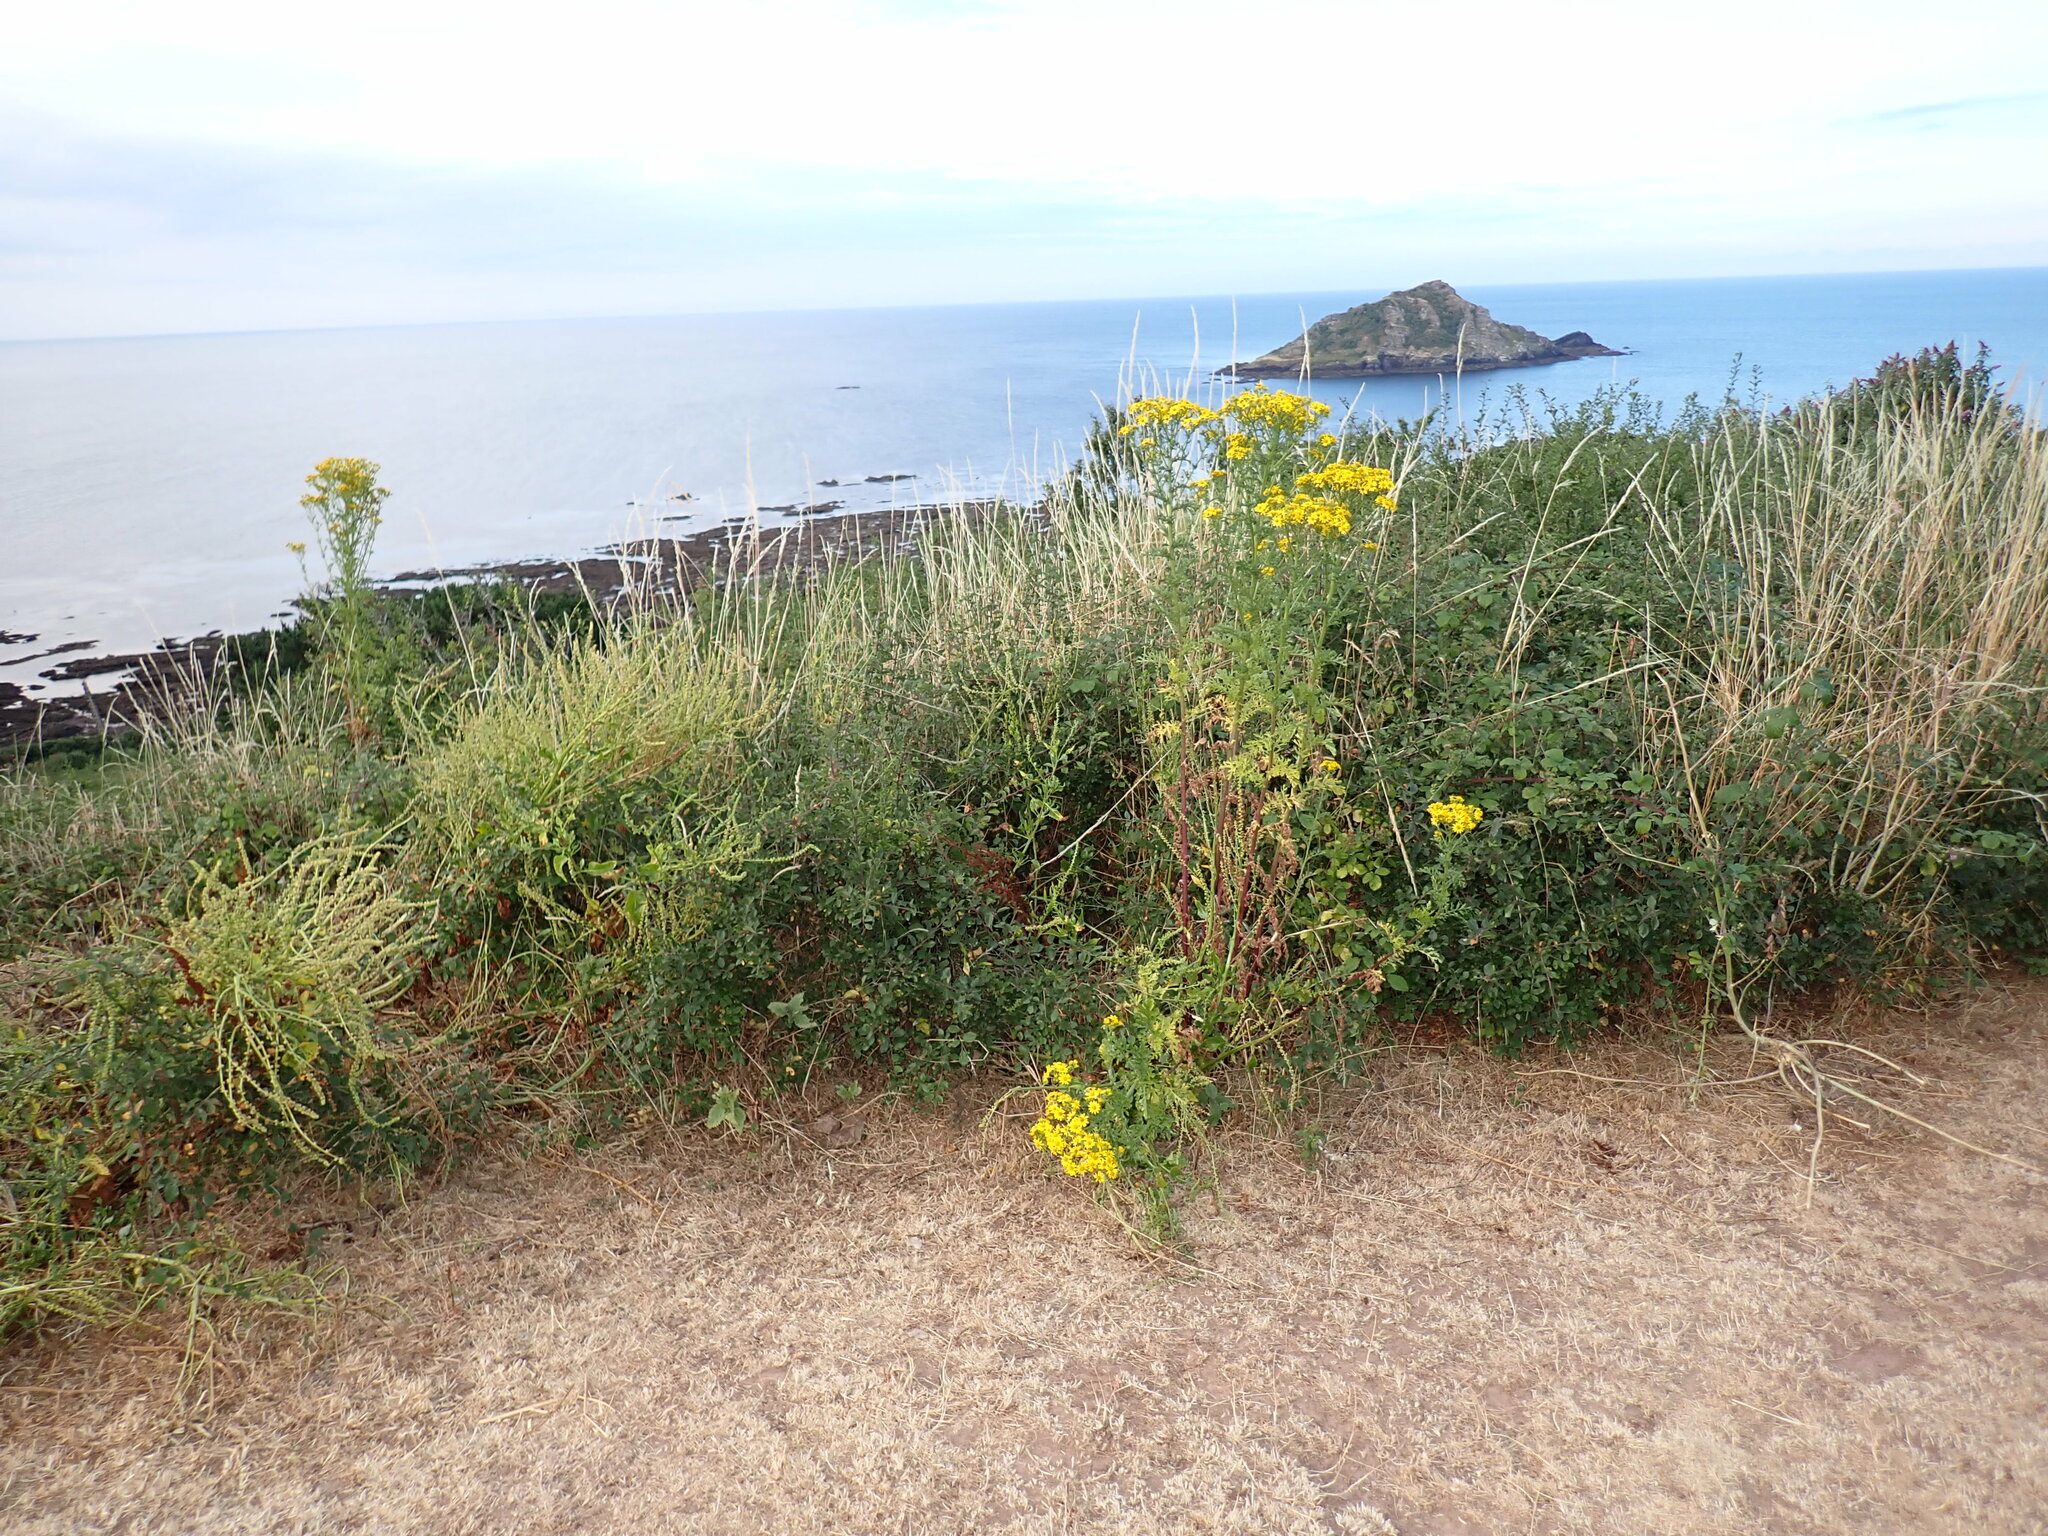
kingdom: Plantae
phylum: Tracheophyta
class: Magnoliopsida
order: Asterales
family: Asteraceae
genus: Jacobaea
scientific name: Jacobaea vulgaris
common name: Stinking willie
